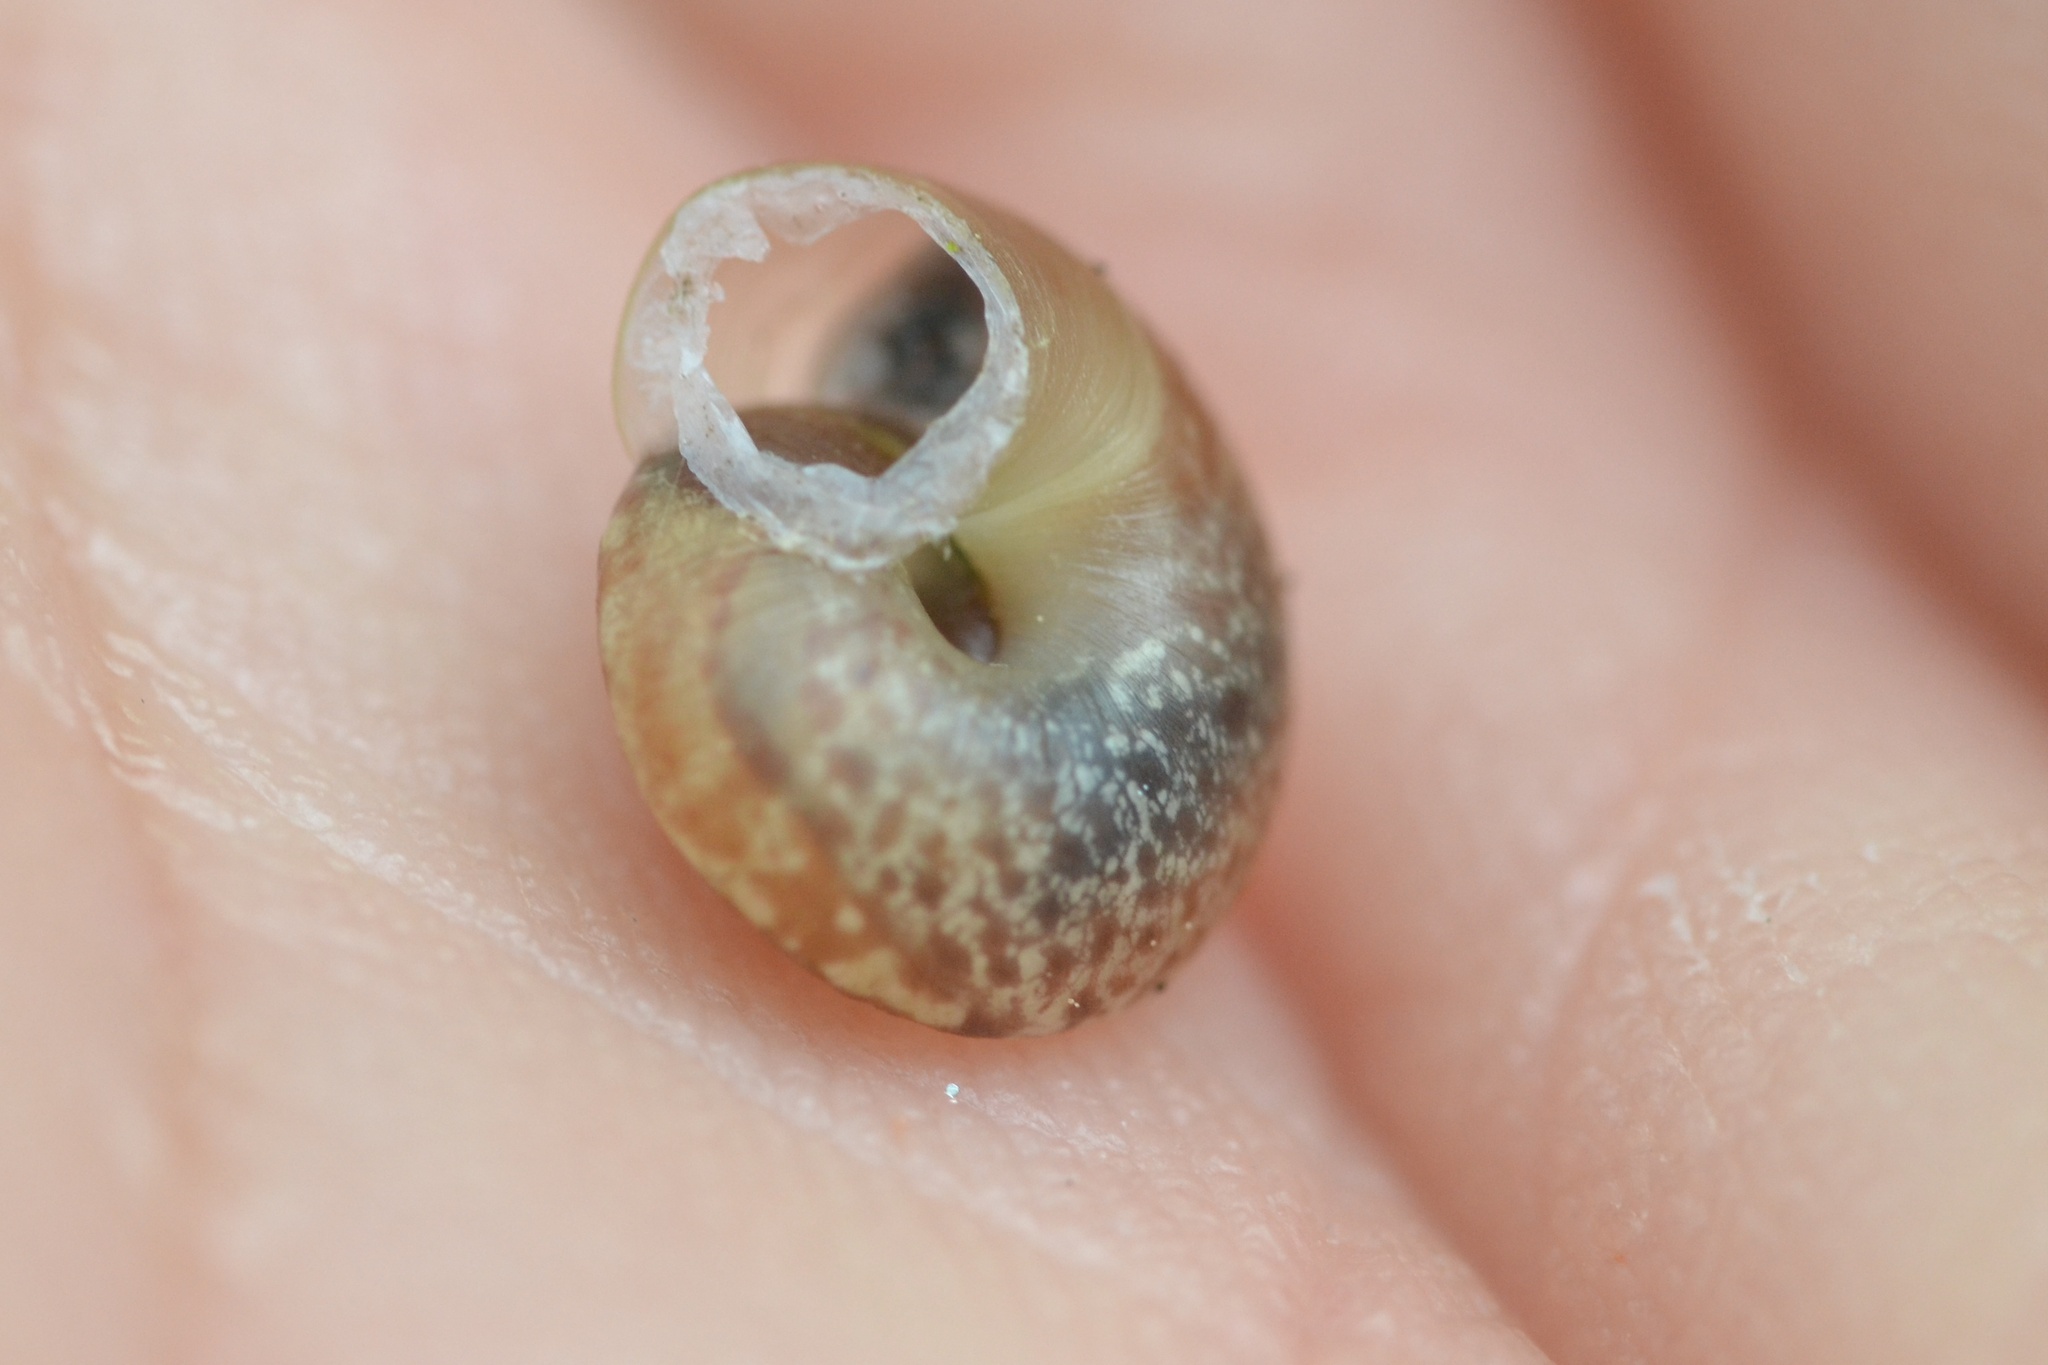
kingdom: Animalia
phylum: Mollusca
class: Gastropoda
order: Stylommatophora
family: Hygromiidae
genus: Urticicola
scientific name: Urticicola umbrosus
